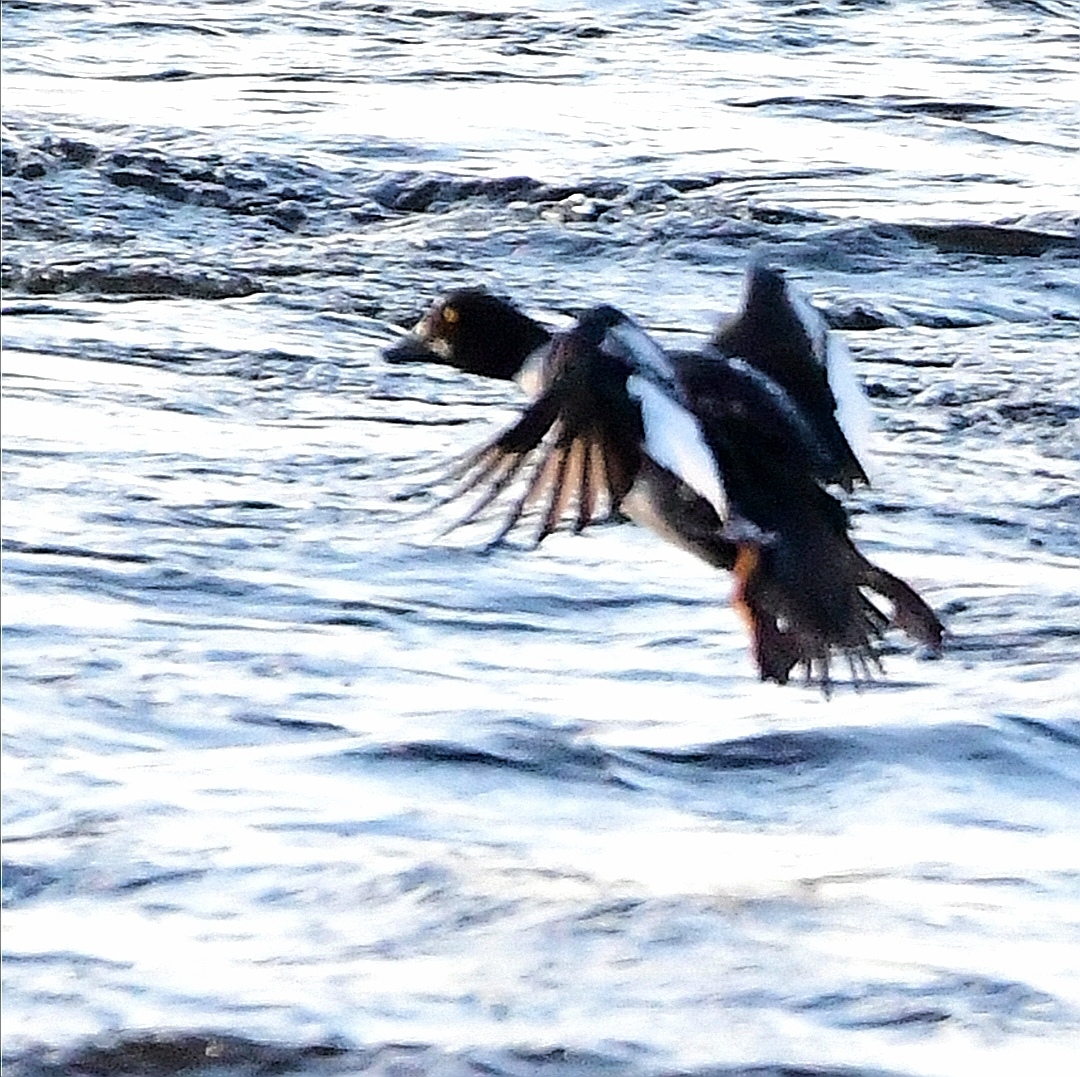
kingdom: Animalia
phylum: Chordata
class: Aves
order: Anseriformes
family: Anatidae
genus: Bucephala
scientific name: Bucephala clangula
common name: Common goldeneye
